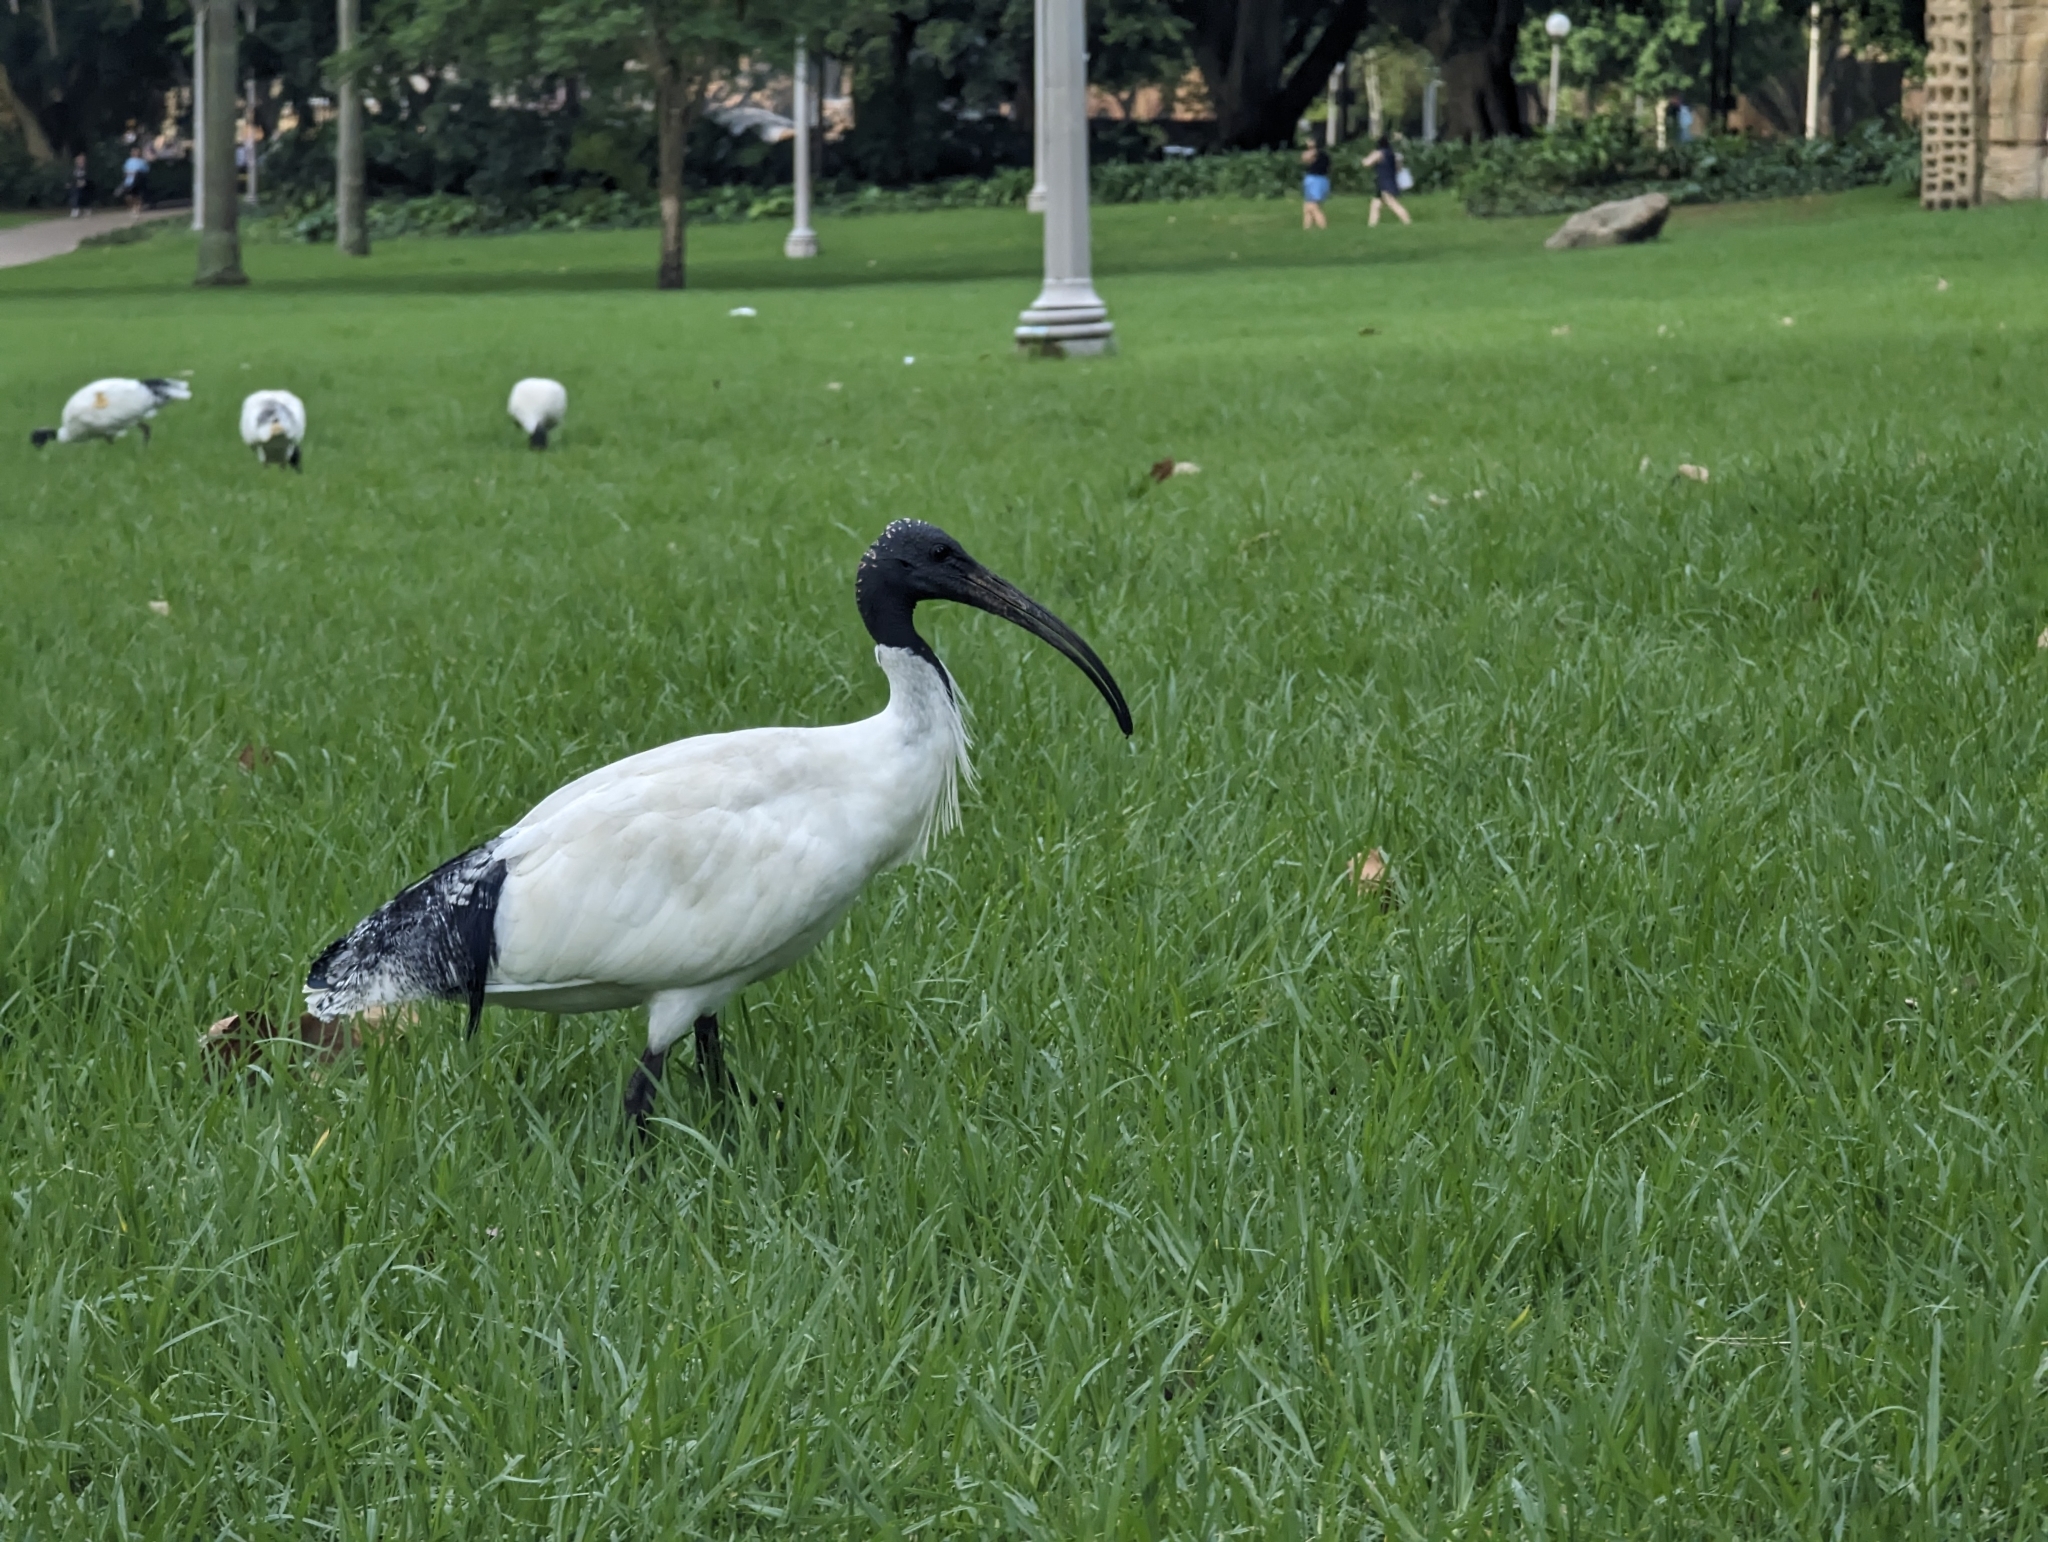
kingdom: Animalia
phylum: Chordata
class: Aves
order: Pelecaniformes
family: Threskiornithidae
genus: Threskiornis
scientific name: Threskiornis molucca
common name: Australian white ibis
